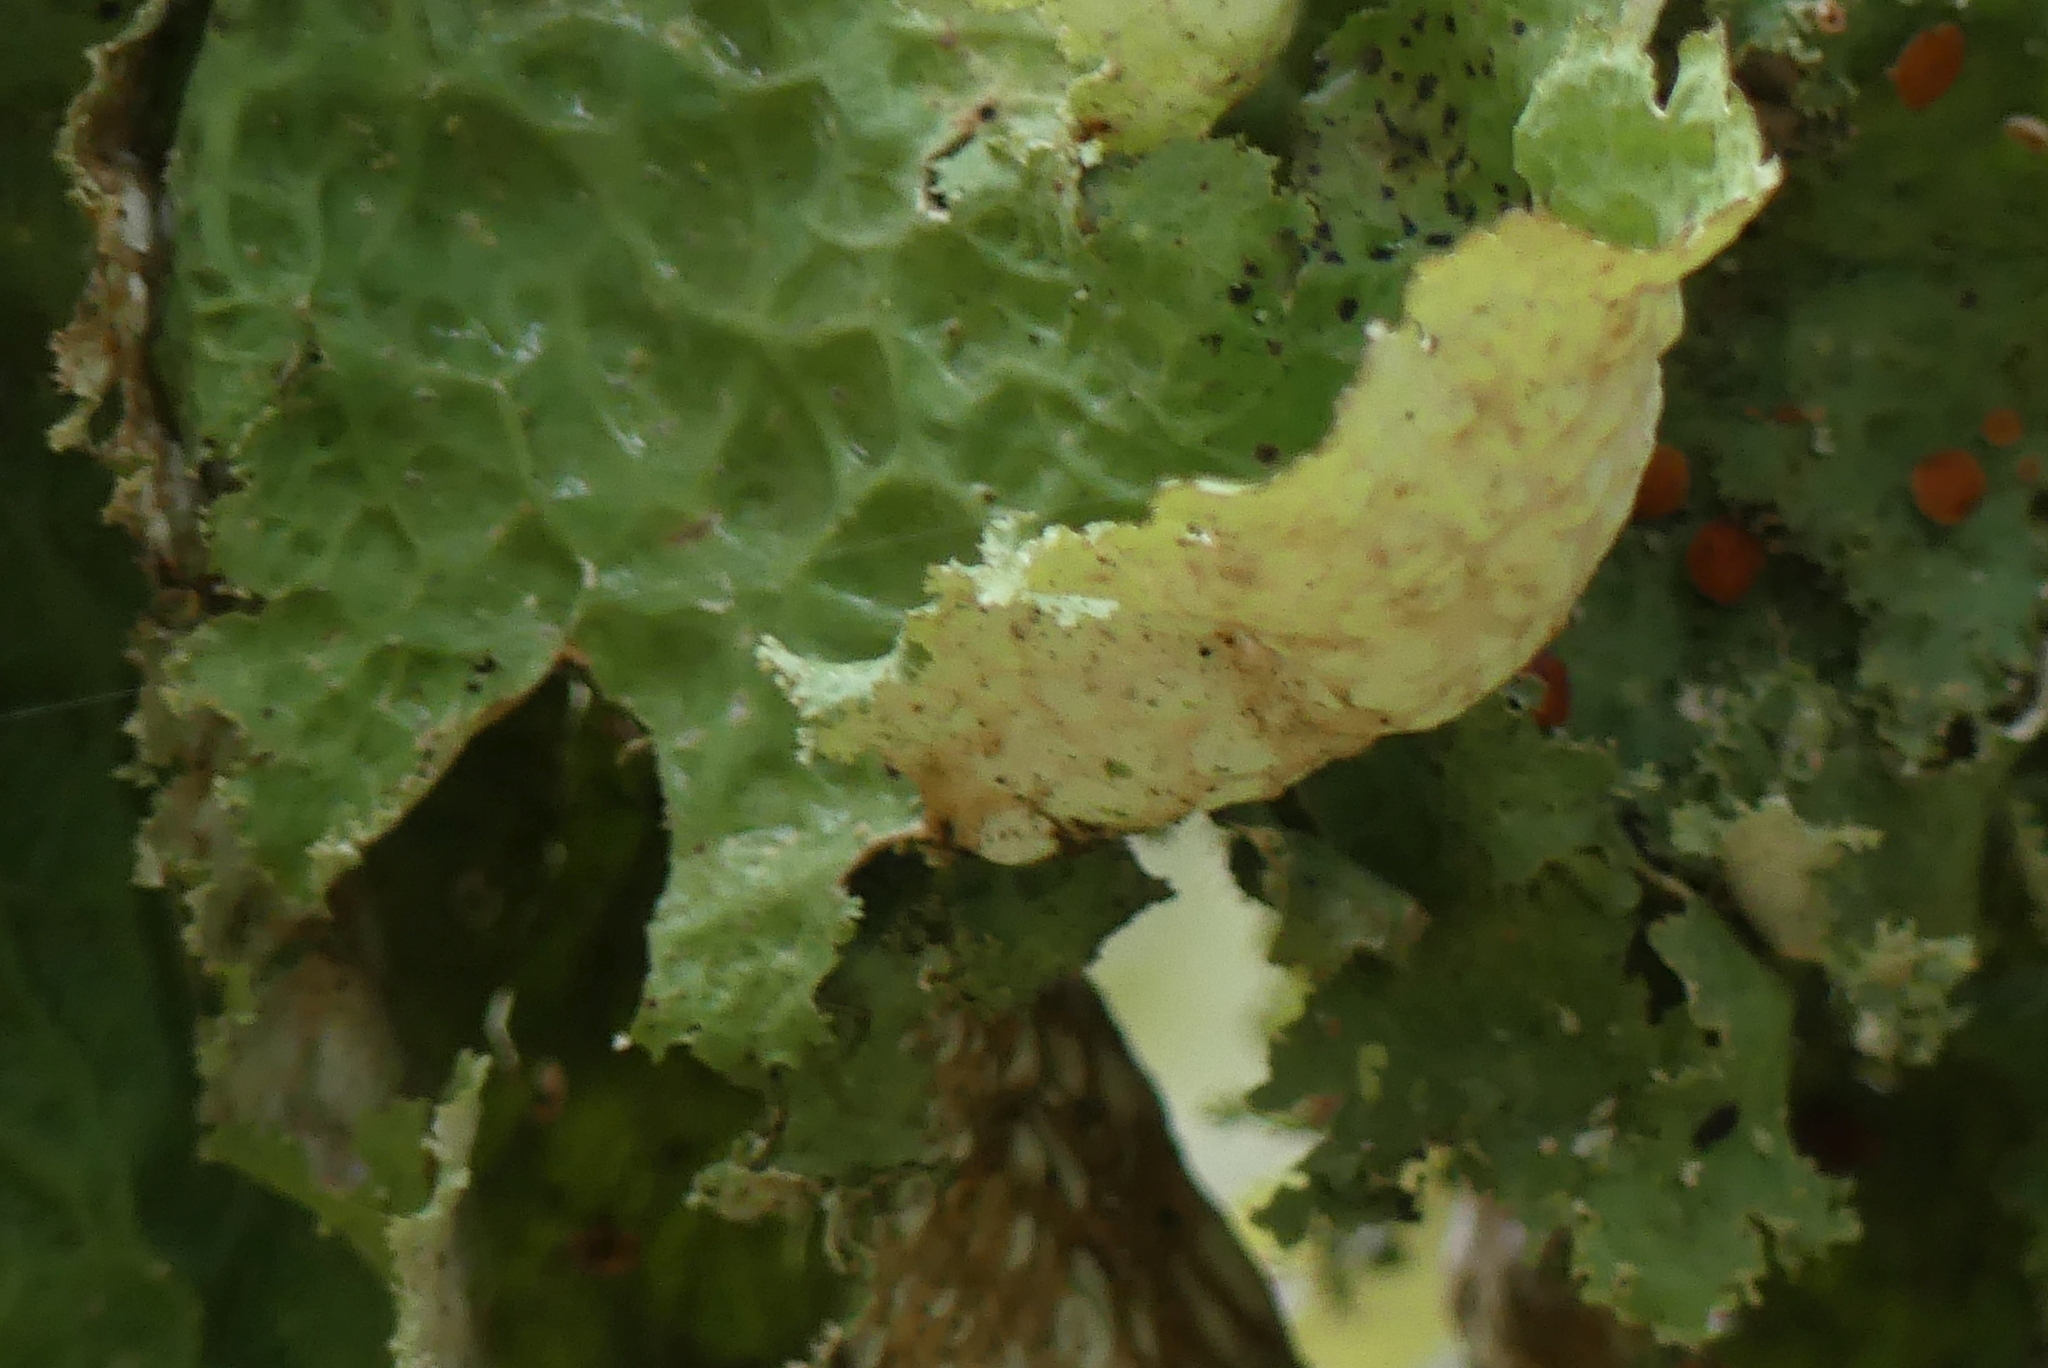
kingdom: Fungi
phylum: Ascomycota
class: Lecanoromycetes
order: Peltigerales
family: Lobariaceae
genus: Lobaria
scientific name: Lobaria oregana
